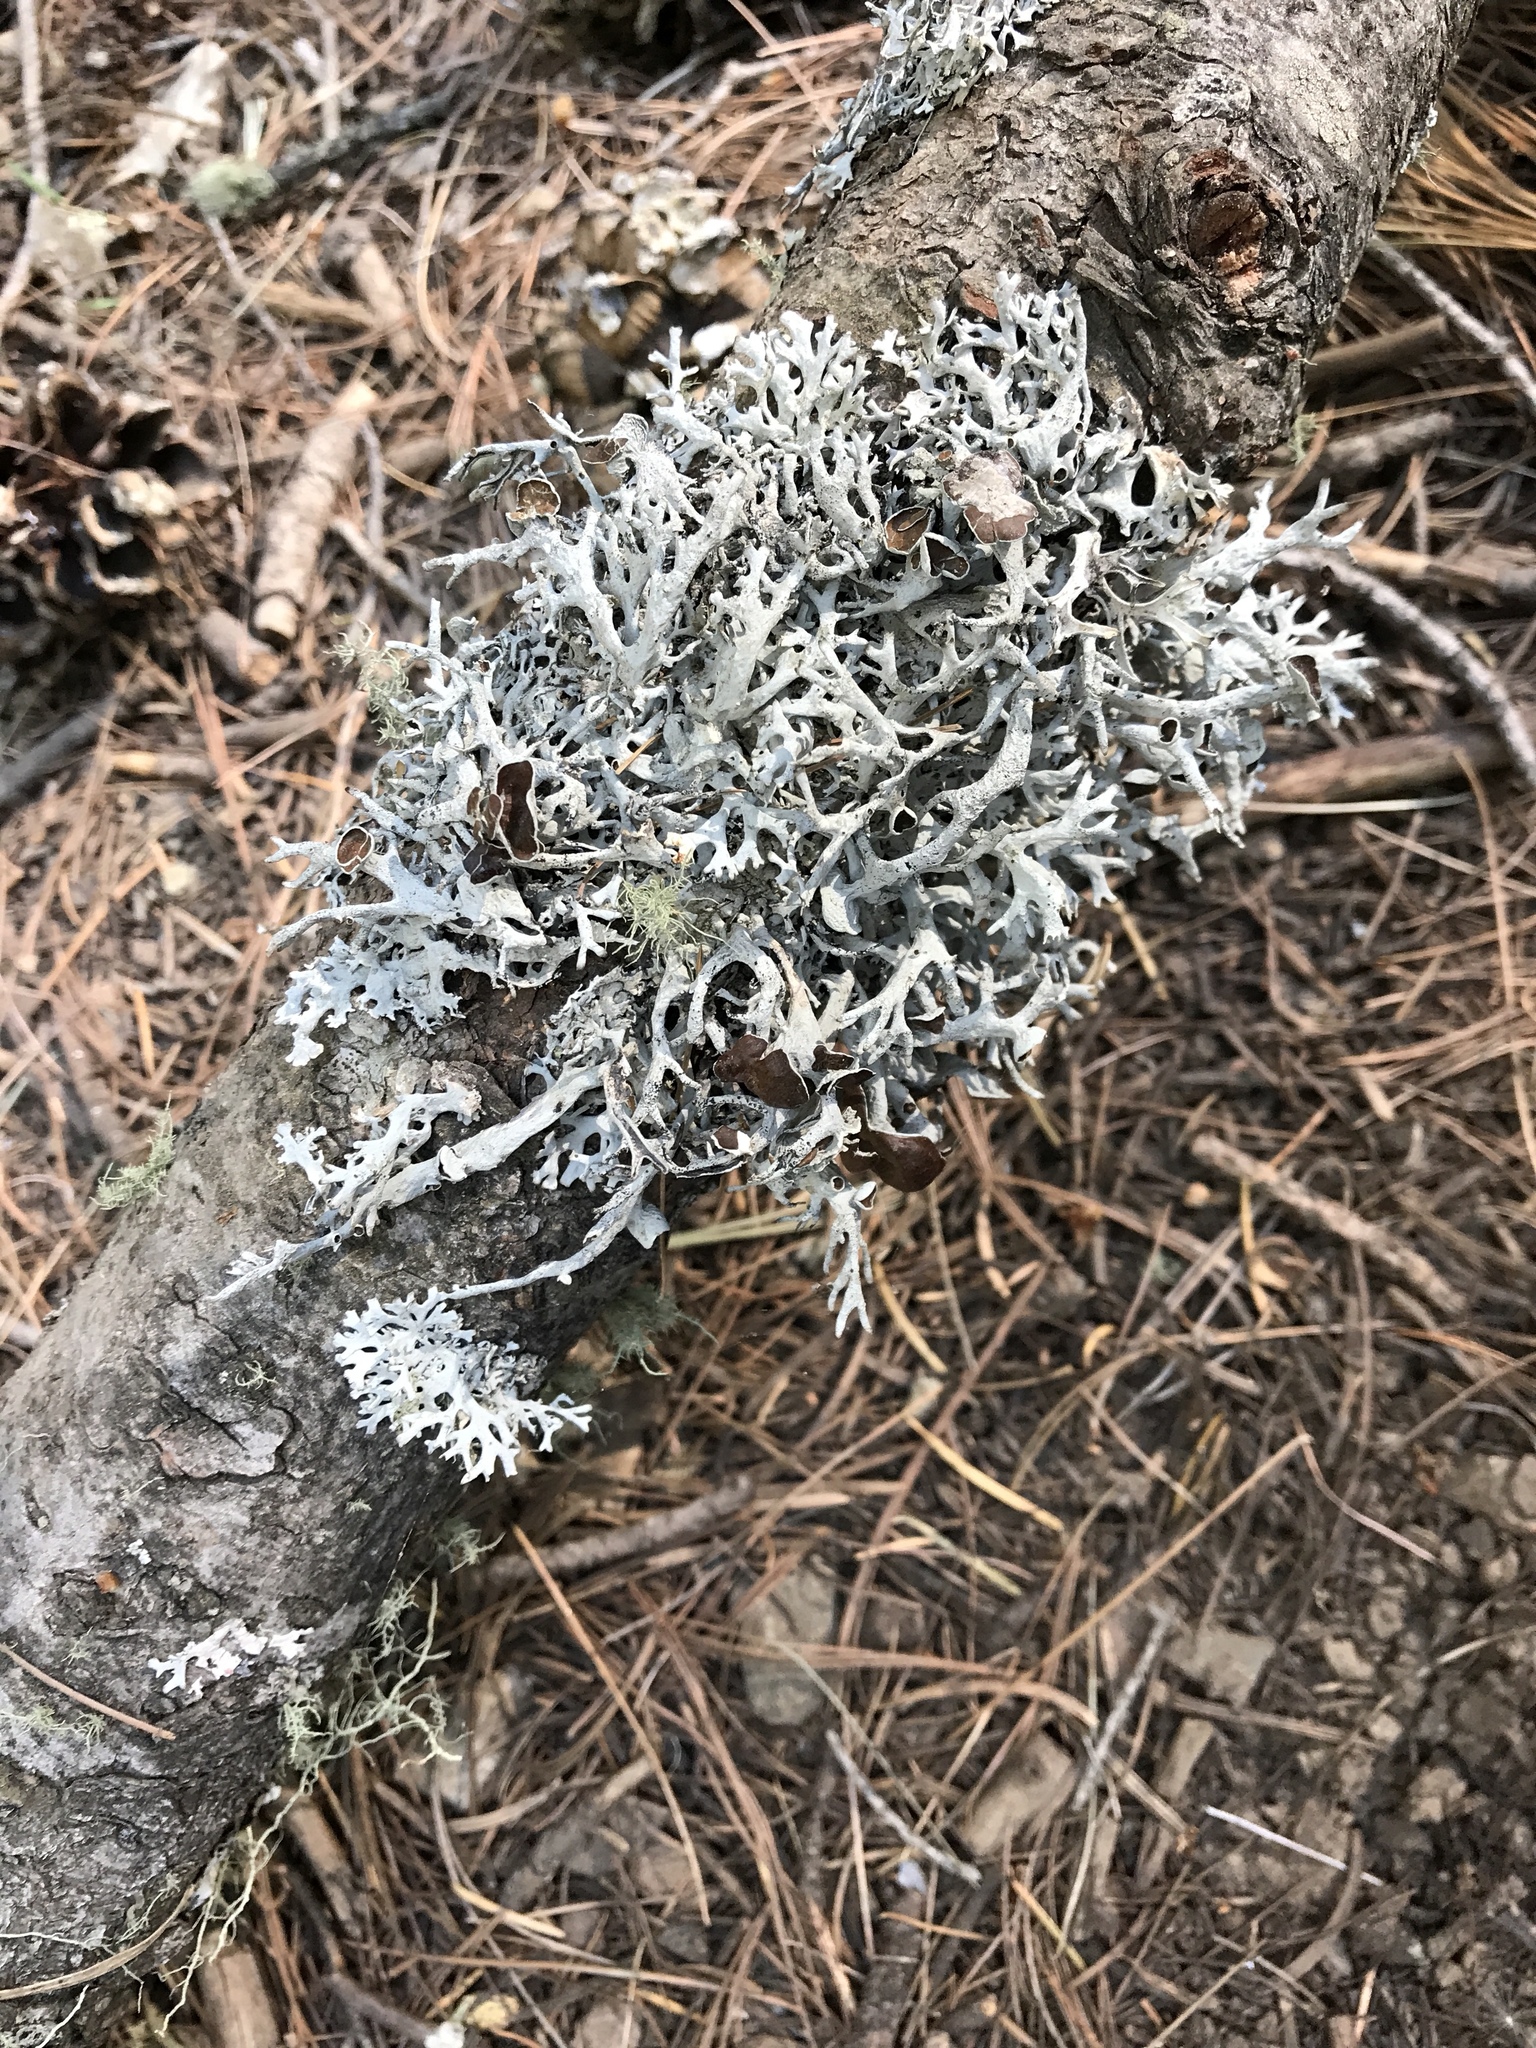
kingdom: Fungi
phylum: Ascomycota
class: Lecanoromycetes
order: Lecanorales
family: Parmeliaceae
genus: Pseudevernia
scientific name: Pseudevernia intensa
